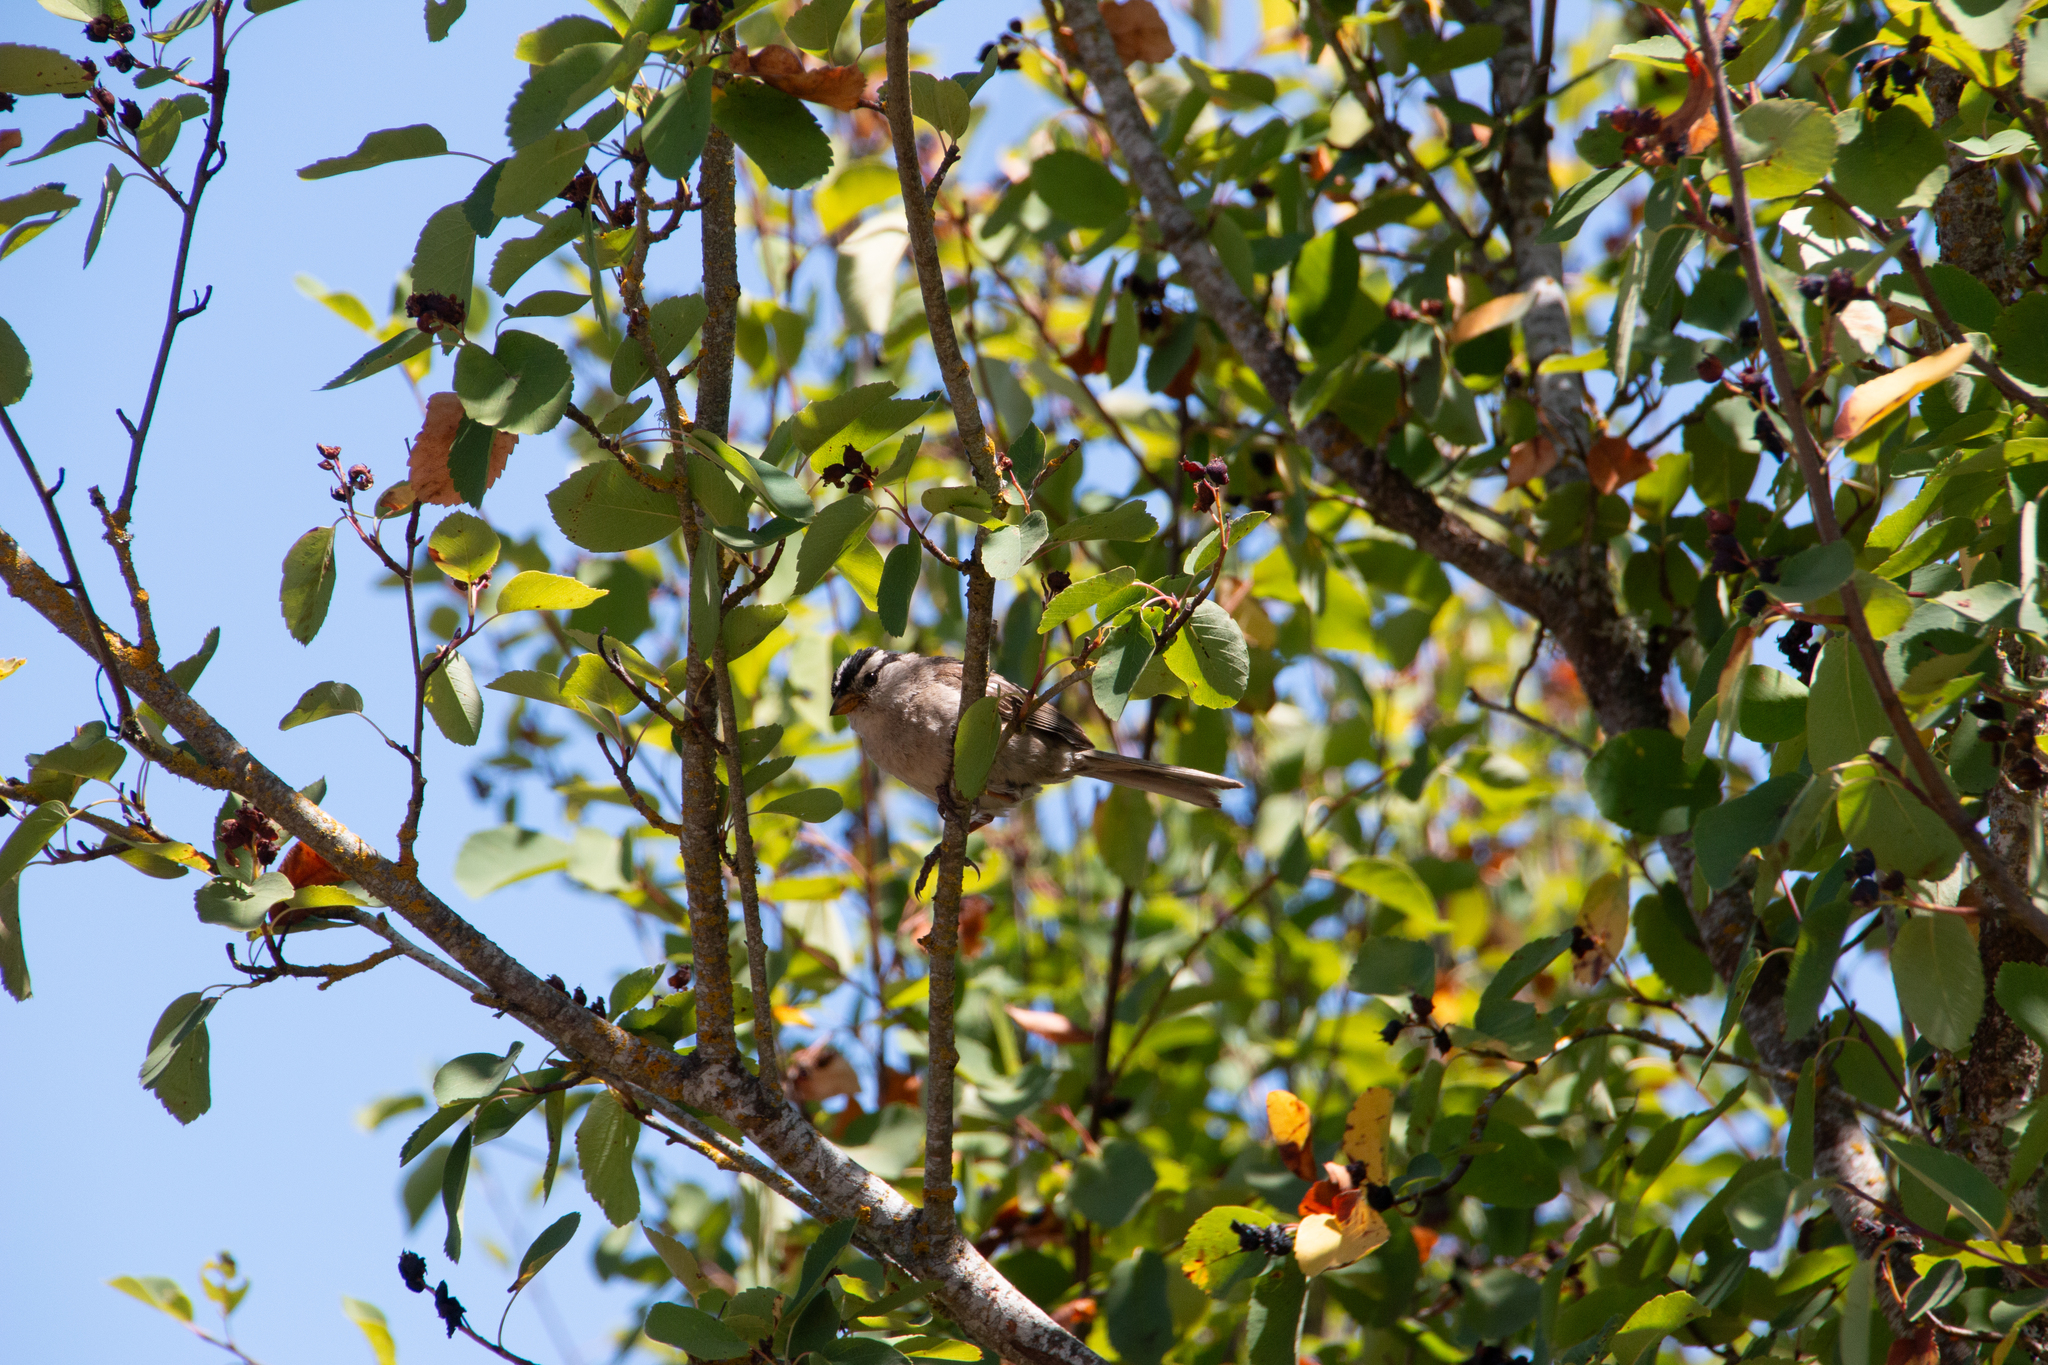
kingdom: Animalia
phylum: Chordata
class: Aves
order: Passeriformes
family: Passerellidae
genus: Zonotrichia
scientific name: Zonotrichia leucophrys
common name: White-crowned sparrow
